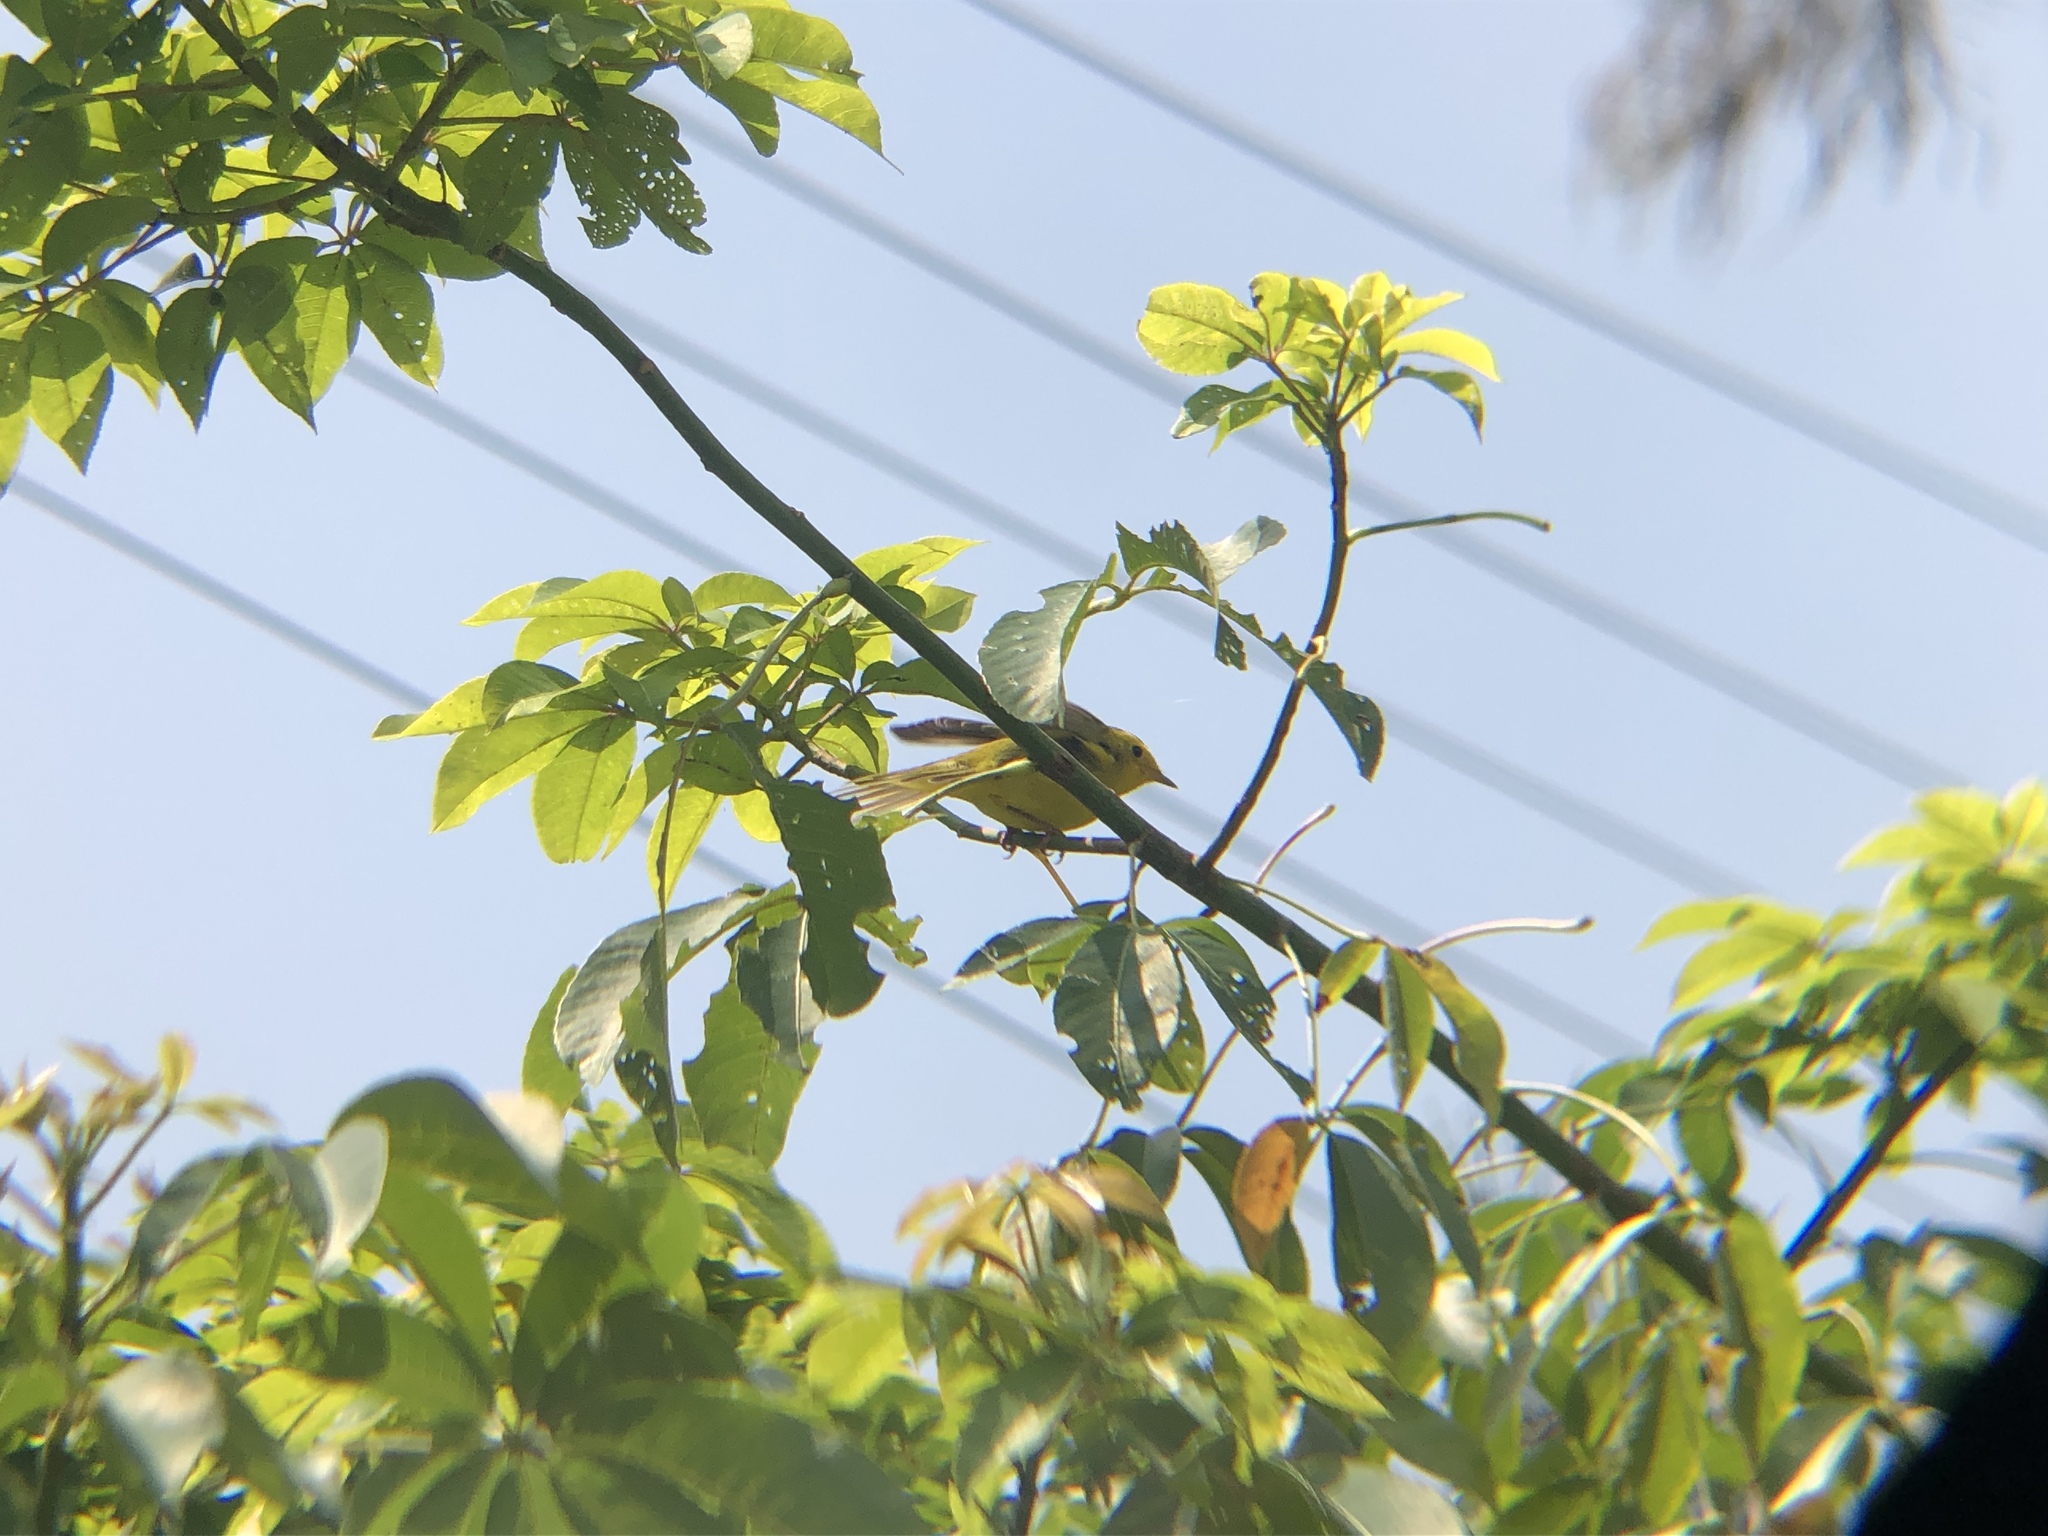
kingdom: Animalia
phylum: Chordata
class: Aves
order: Passeriformes
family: Parulidae
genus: Cardellina
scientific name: Cardellina pusilla
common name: Wilson's warbler
